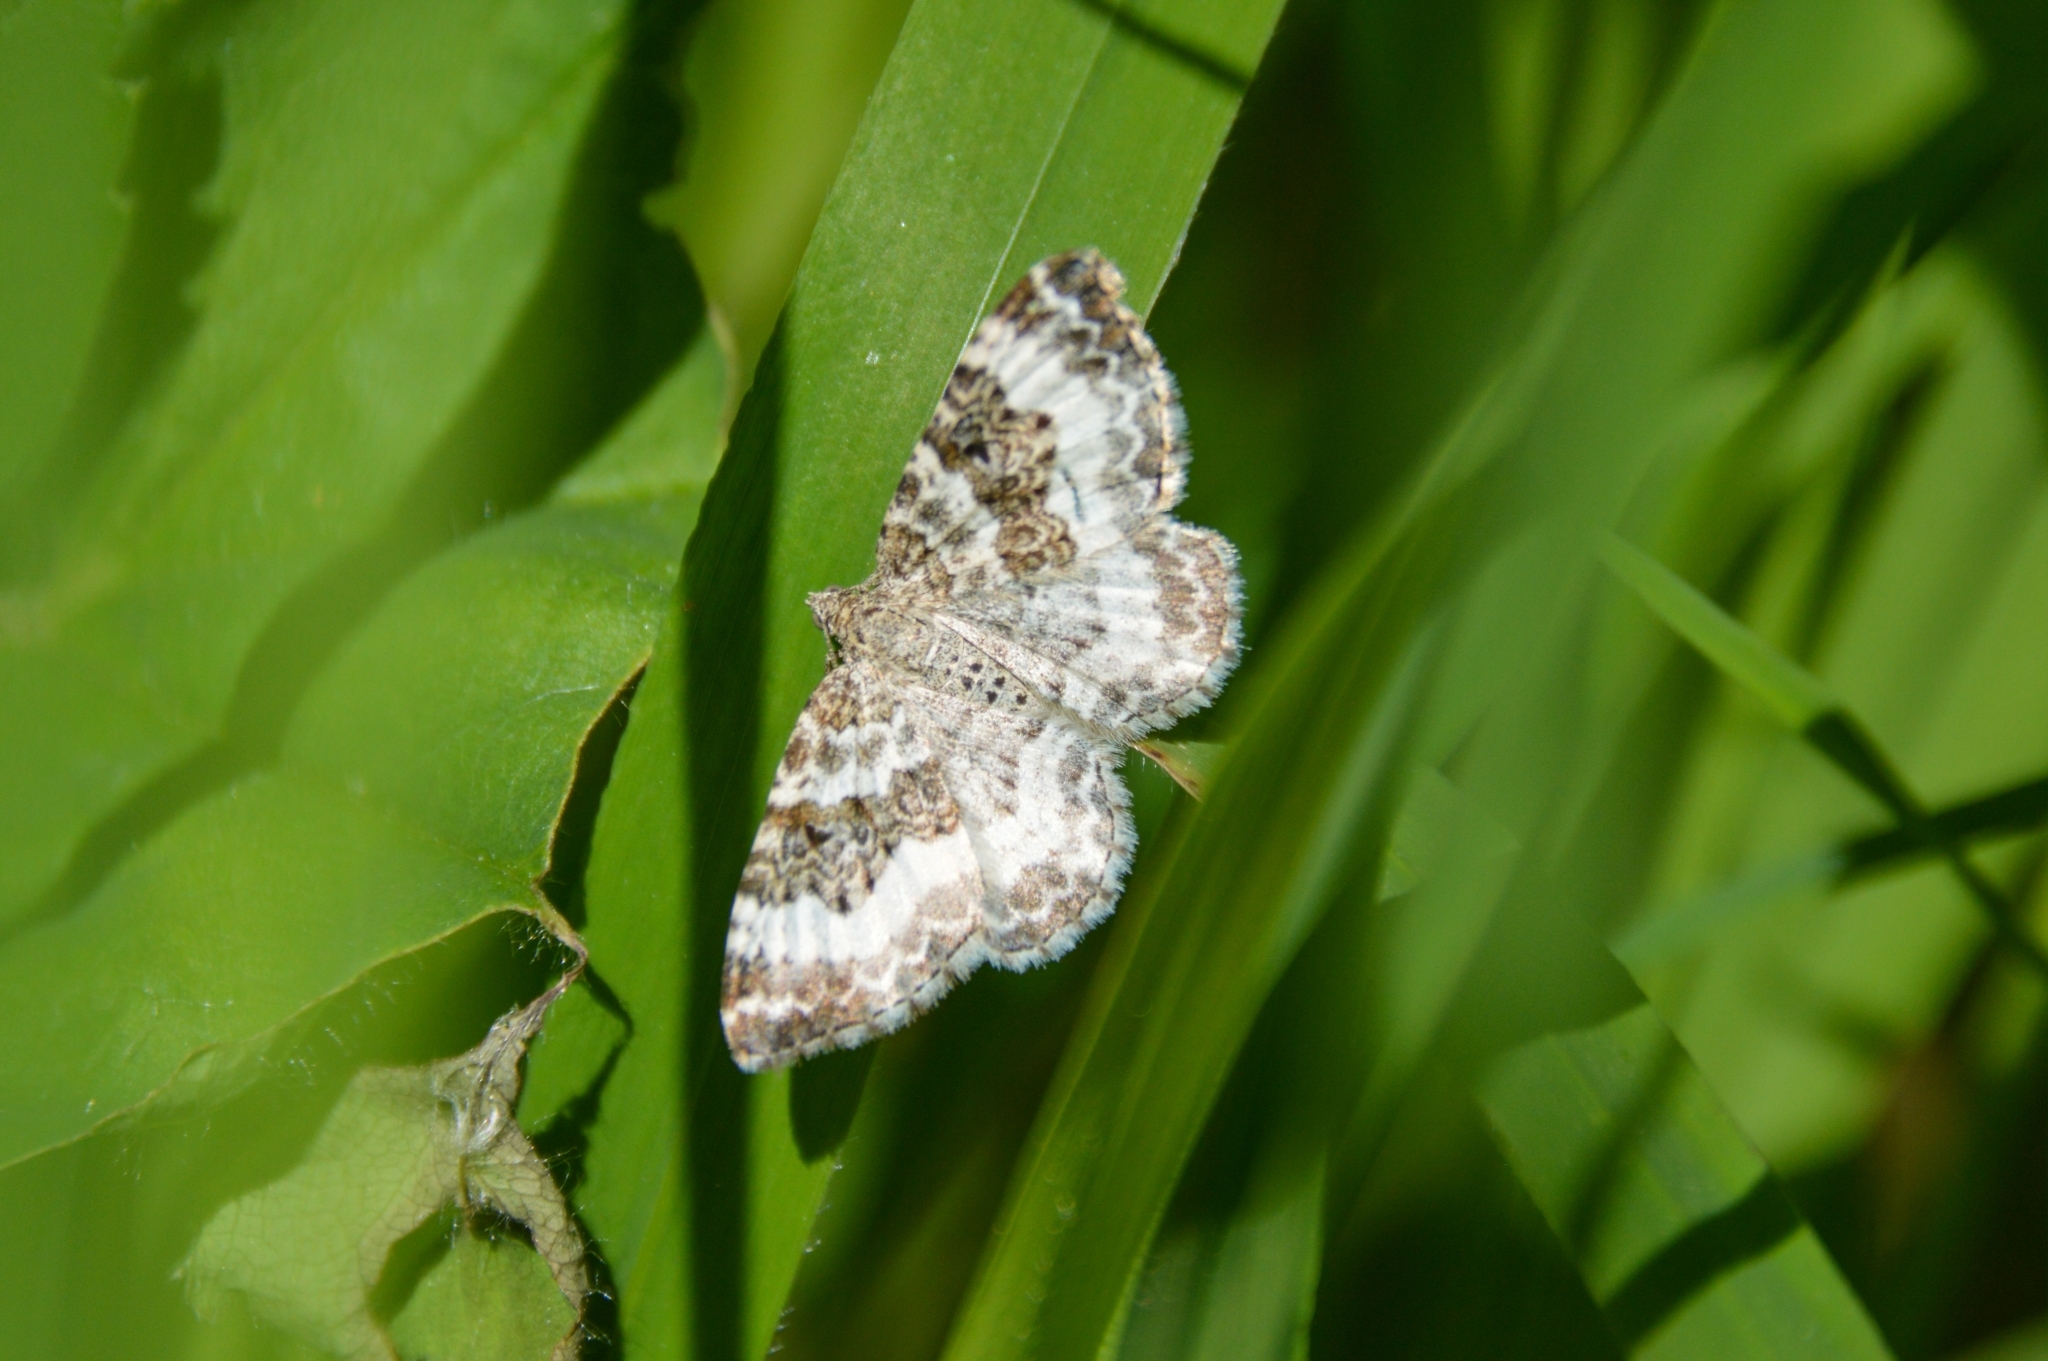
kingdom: Animalia
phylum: Arthropoda
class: Insecta
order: Lepidoptera
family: Geometridae
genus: Epirrhoe
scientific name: Epirrhoe alternata
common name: Common carpet
